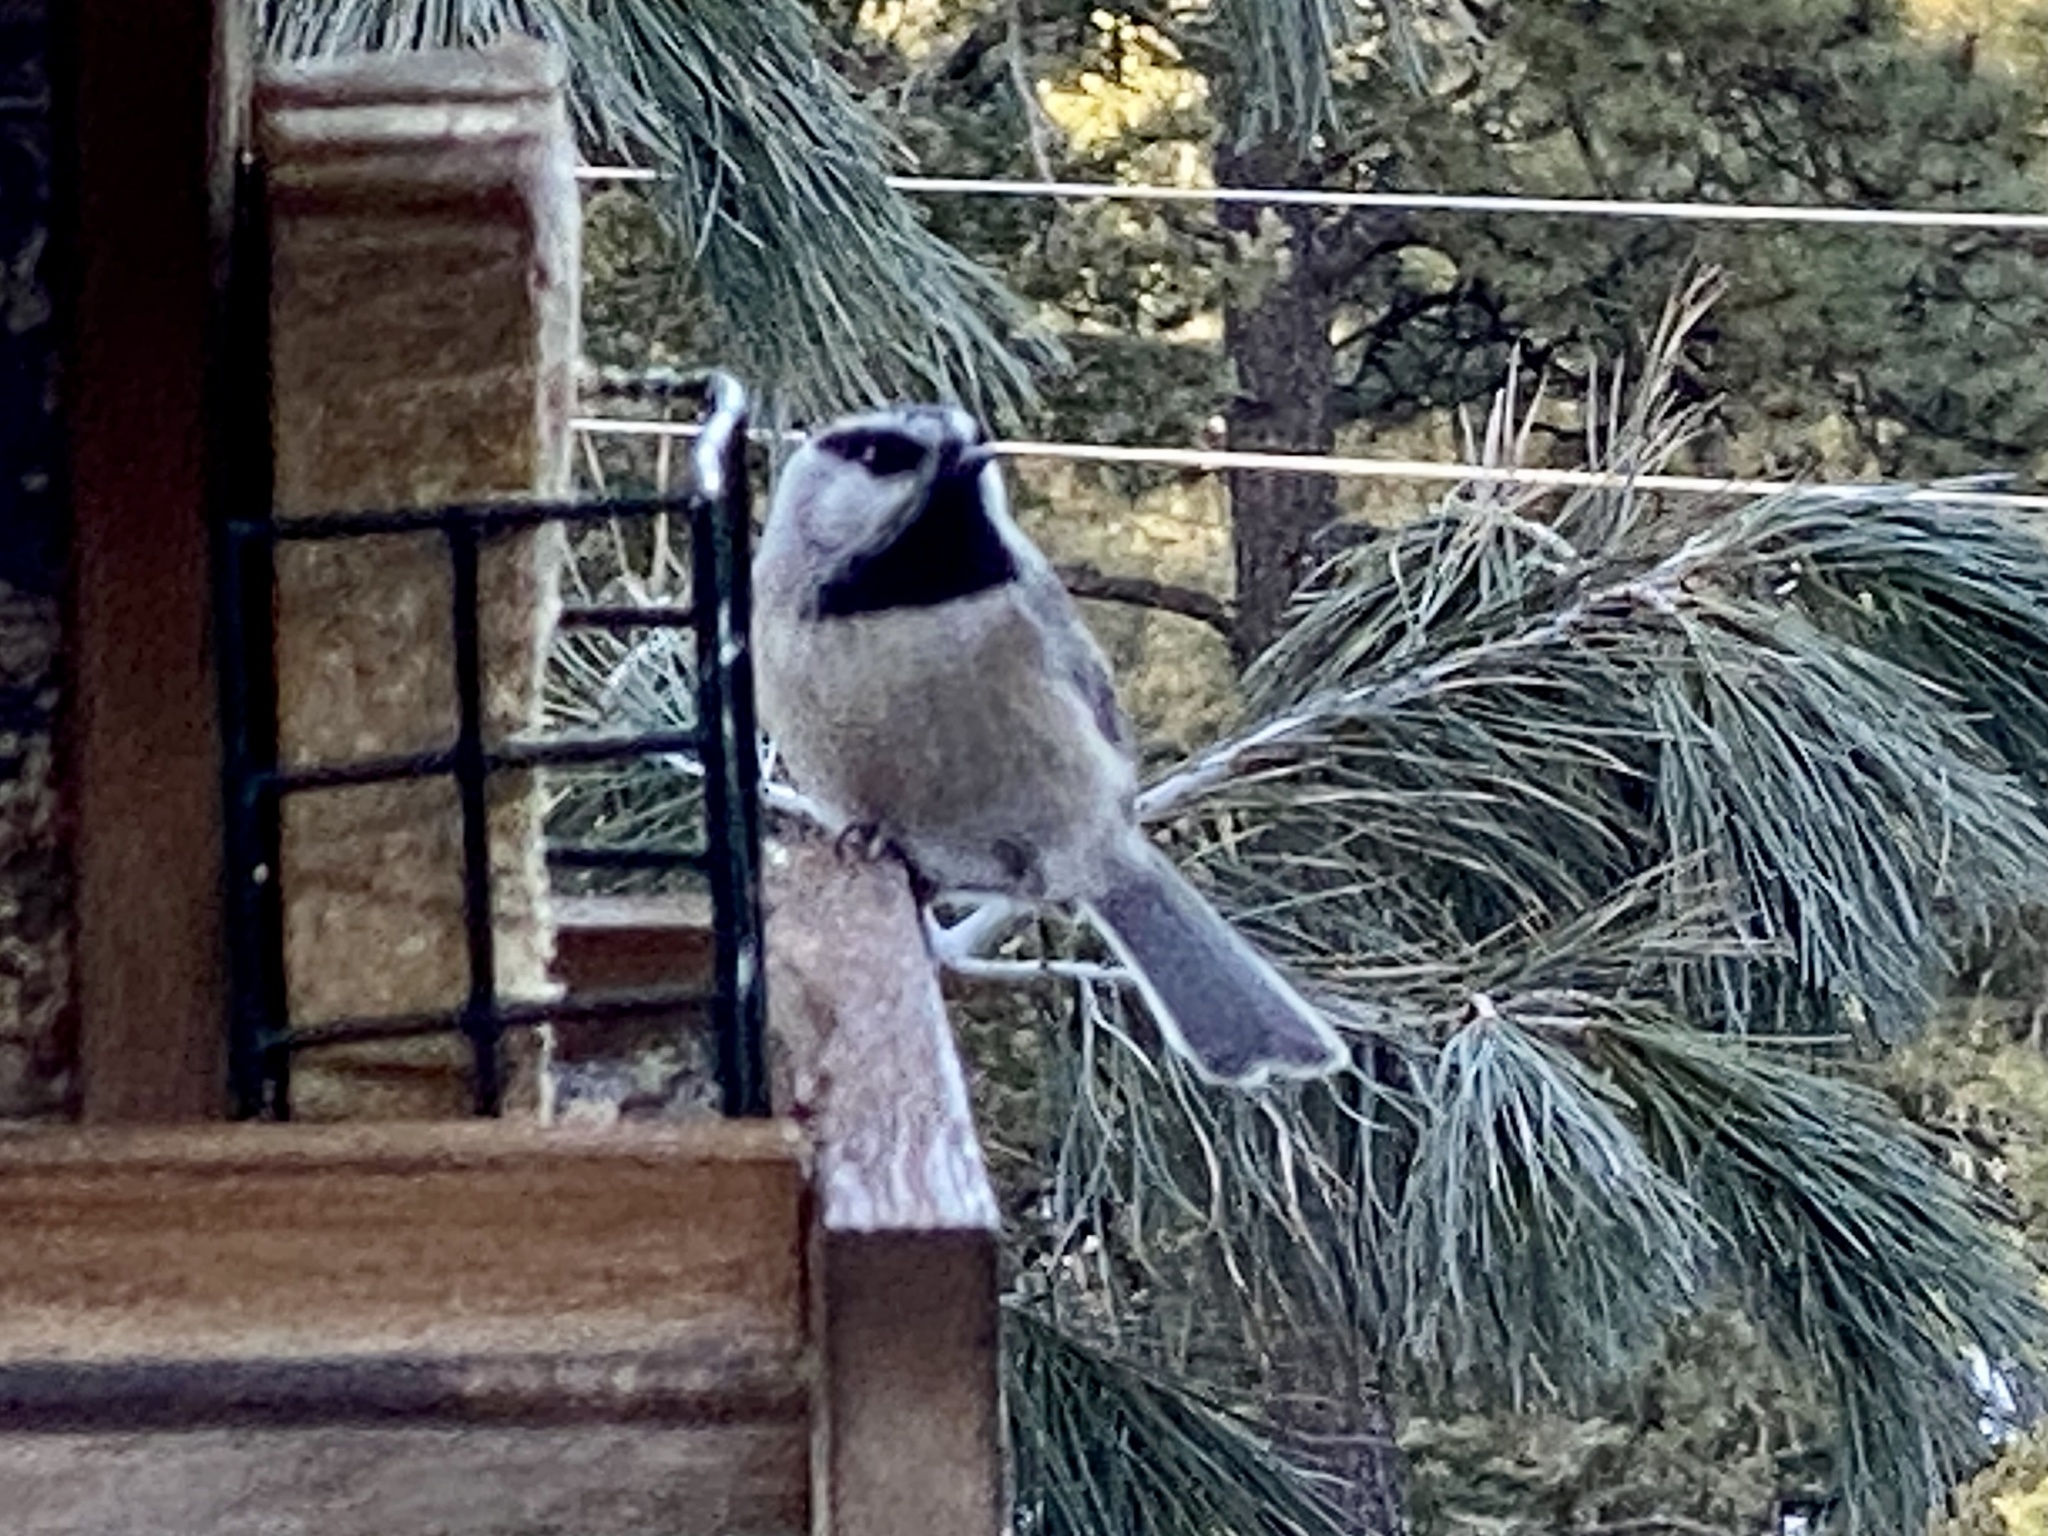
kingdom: Animalia
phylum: Chordata
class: Aves
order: Passeriformes
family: Paridae
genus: Poecile
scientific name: Poecile gambeli
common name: Mountain chickadee
